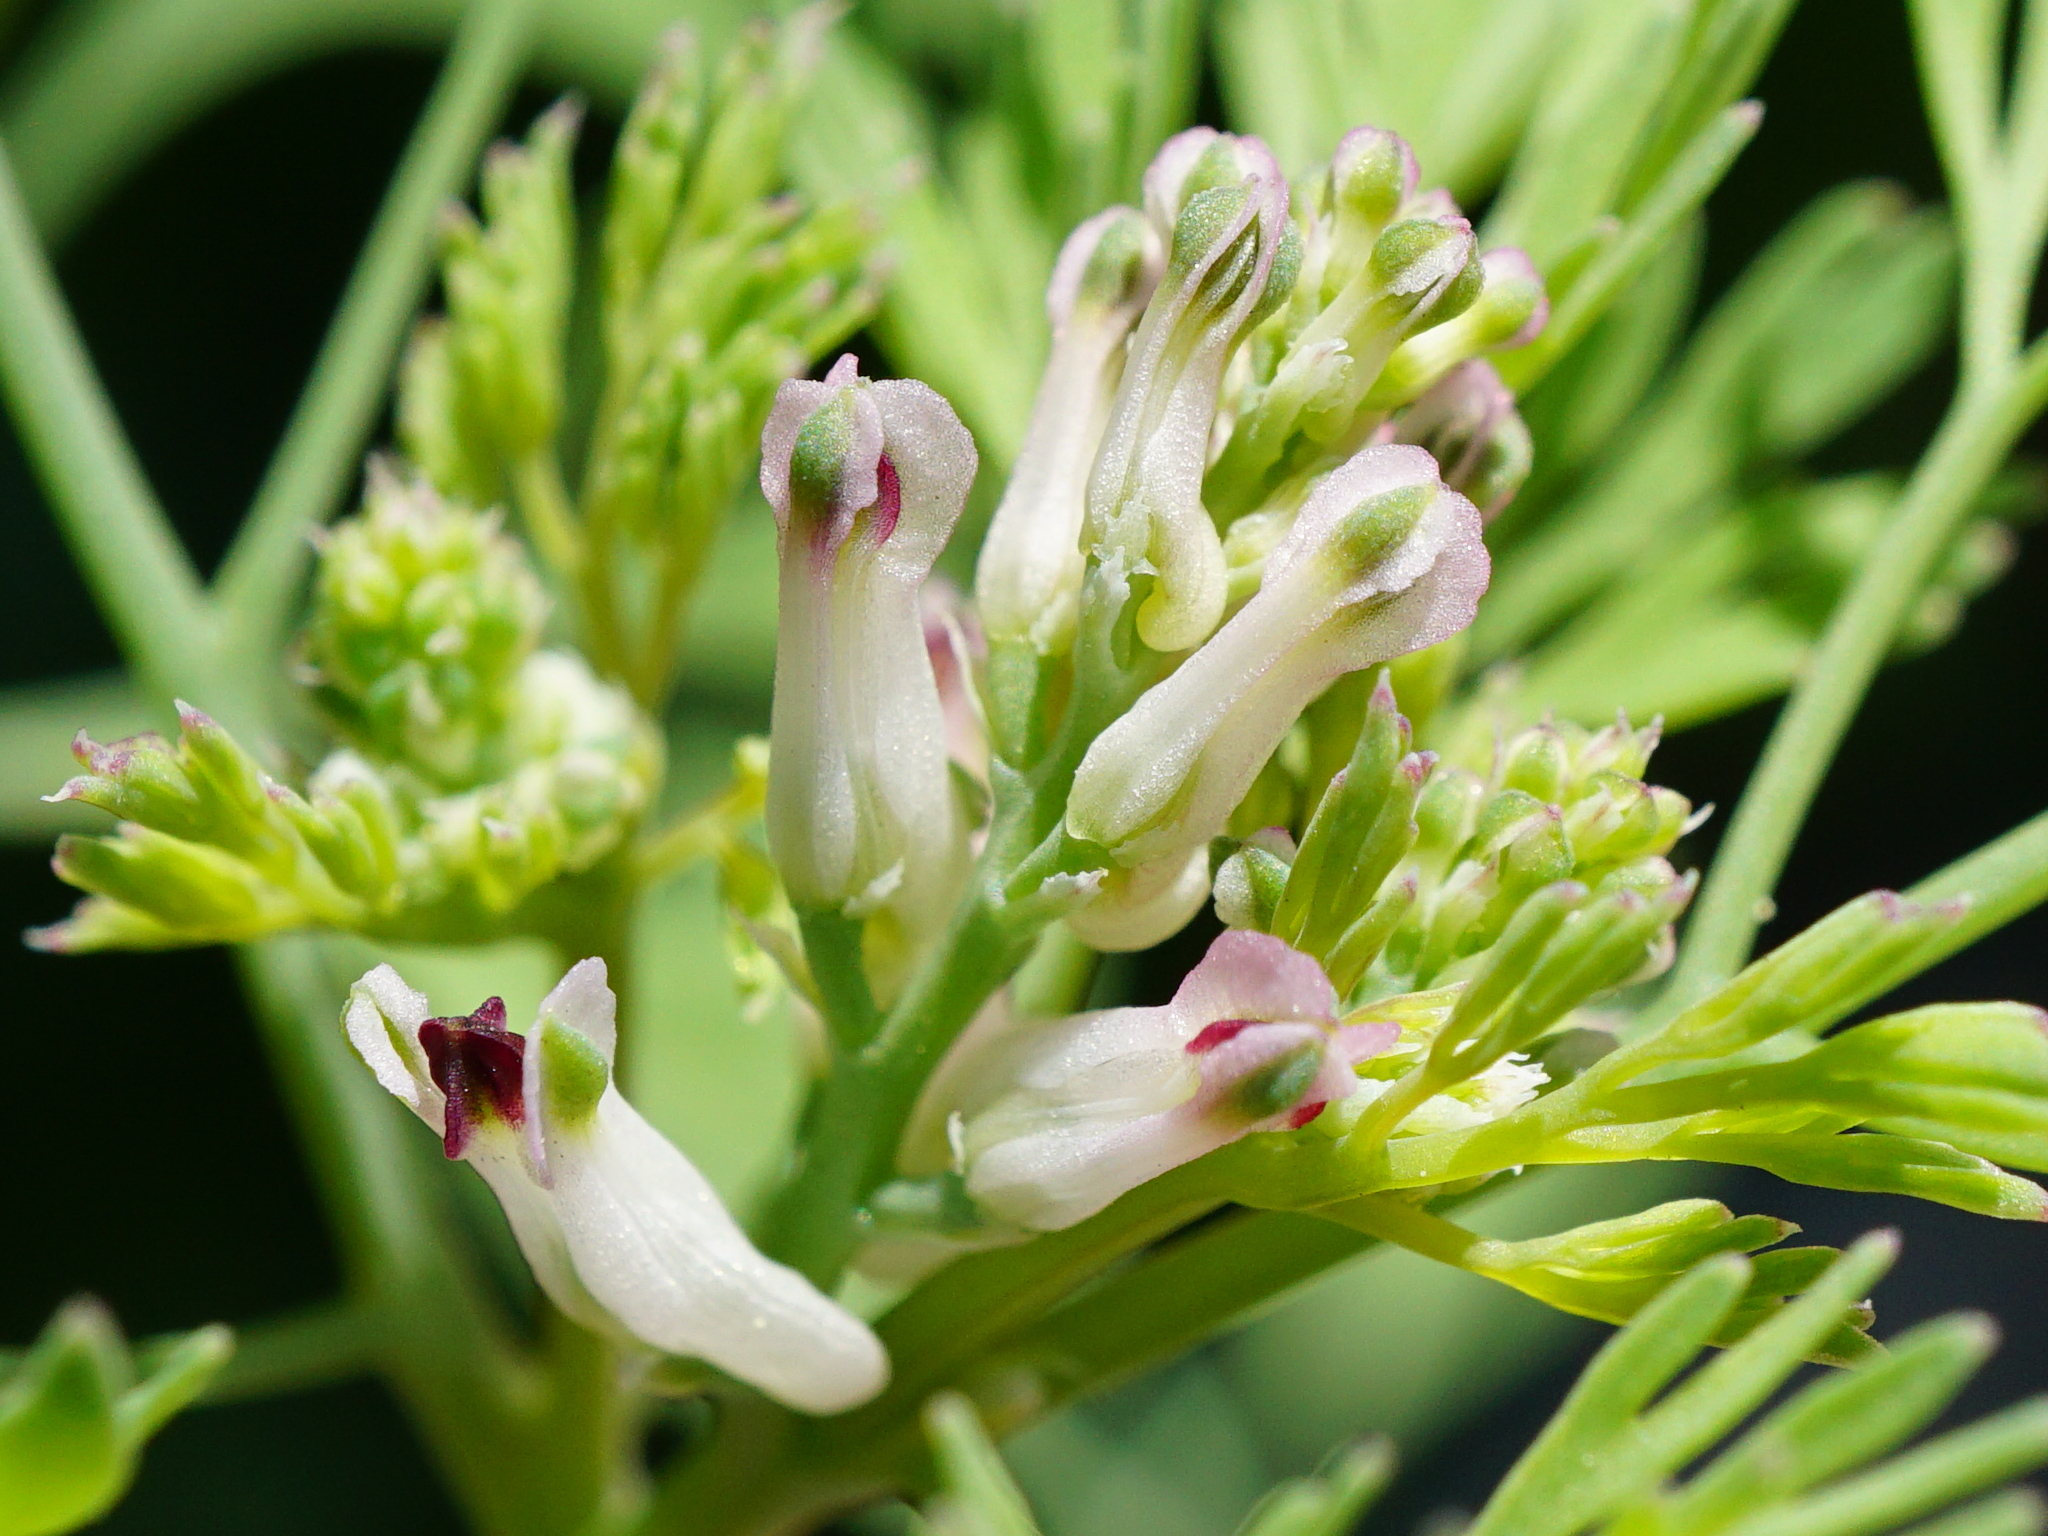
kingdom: Plantae
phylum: Tracheophyta
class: Magnoliopsida
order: Ranunculales
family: Papaveraceae
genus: Fumaria
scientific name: Fumaria vaillantii
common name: Few-flowered fumitory
